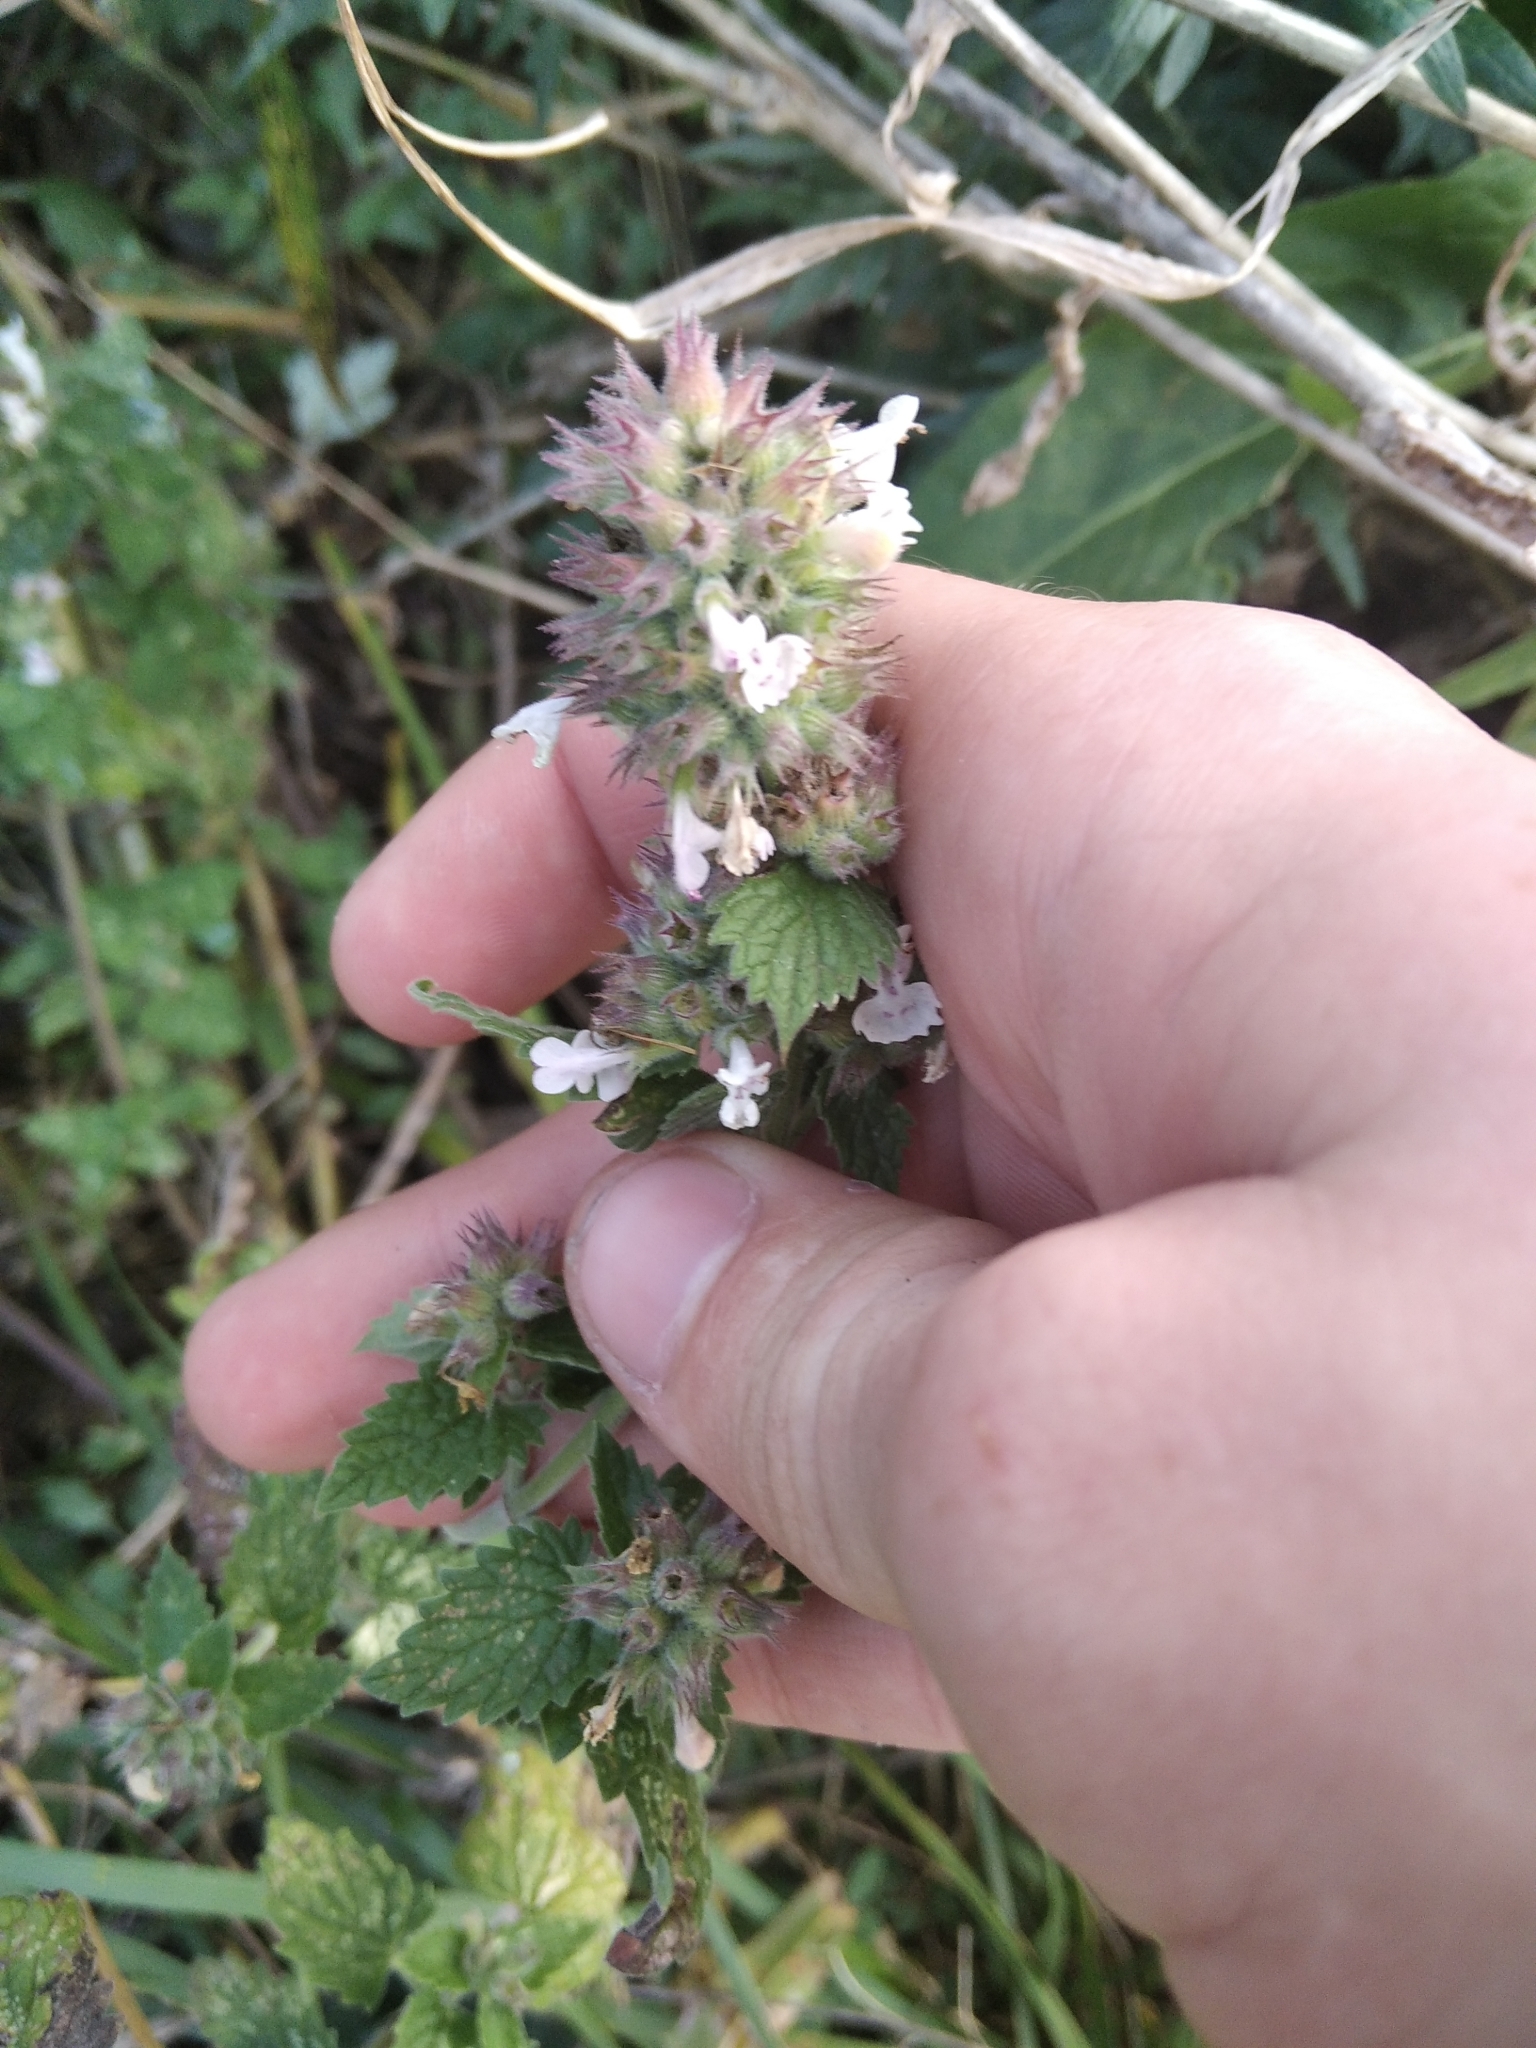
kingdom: Plantae
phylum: Tracheophyta
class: Magnoliopsida
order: Lamiales
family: Lamiaceae
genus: Nepeta
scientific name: Nepeta cataria
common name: Catnip
